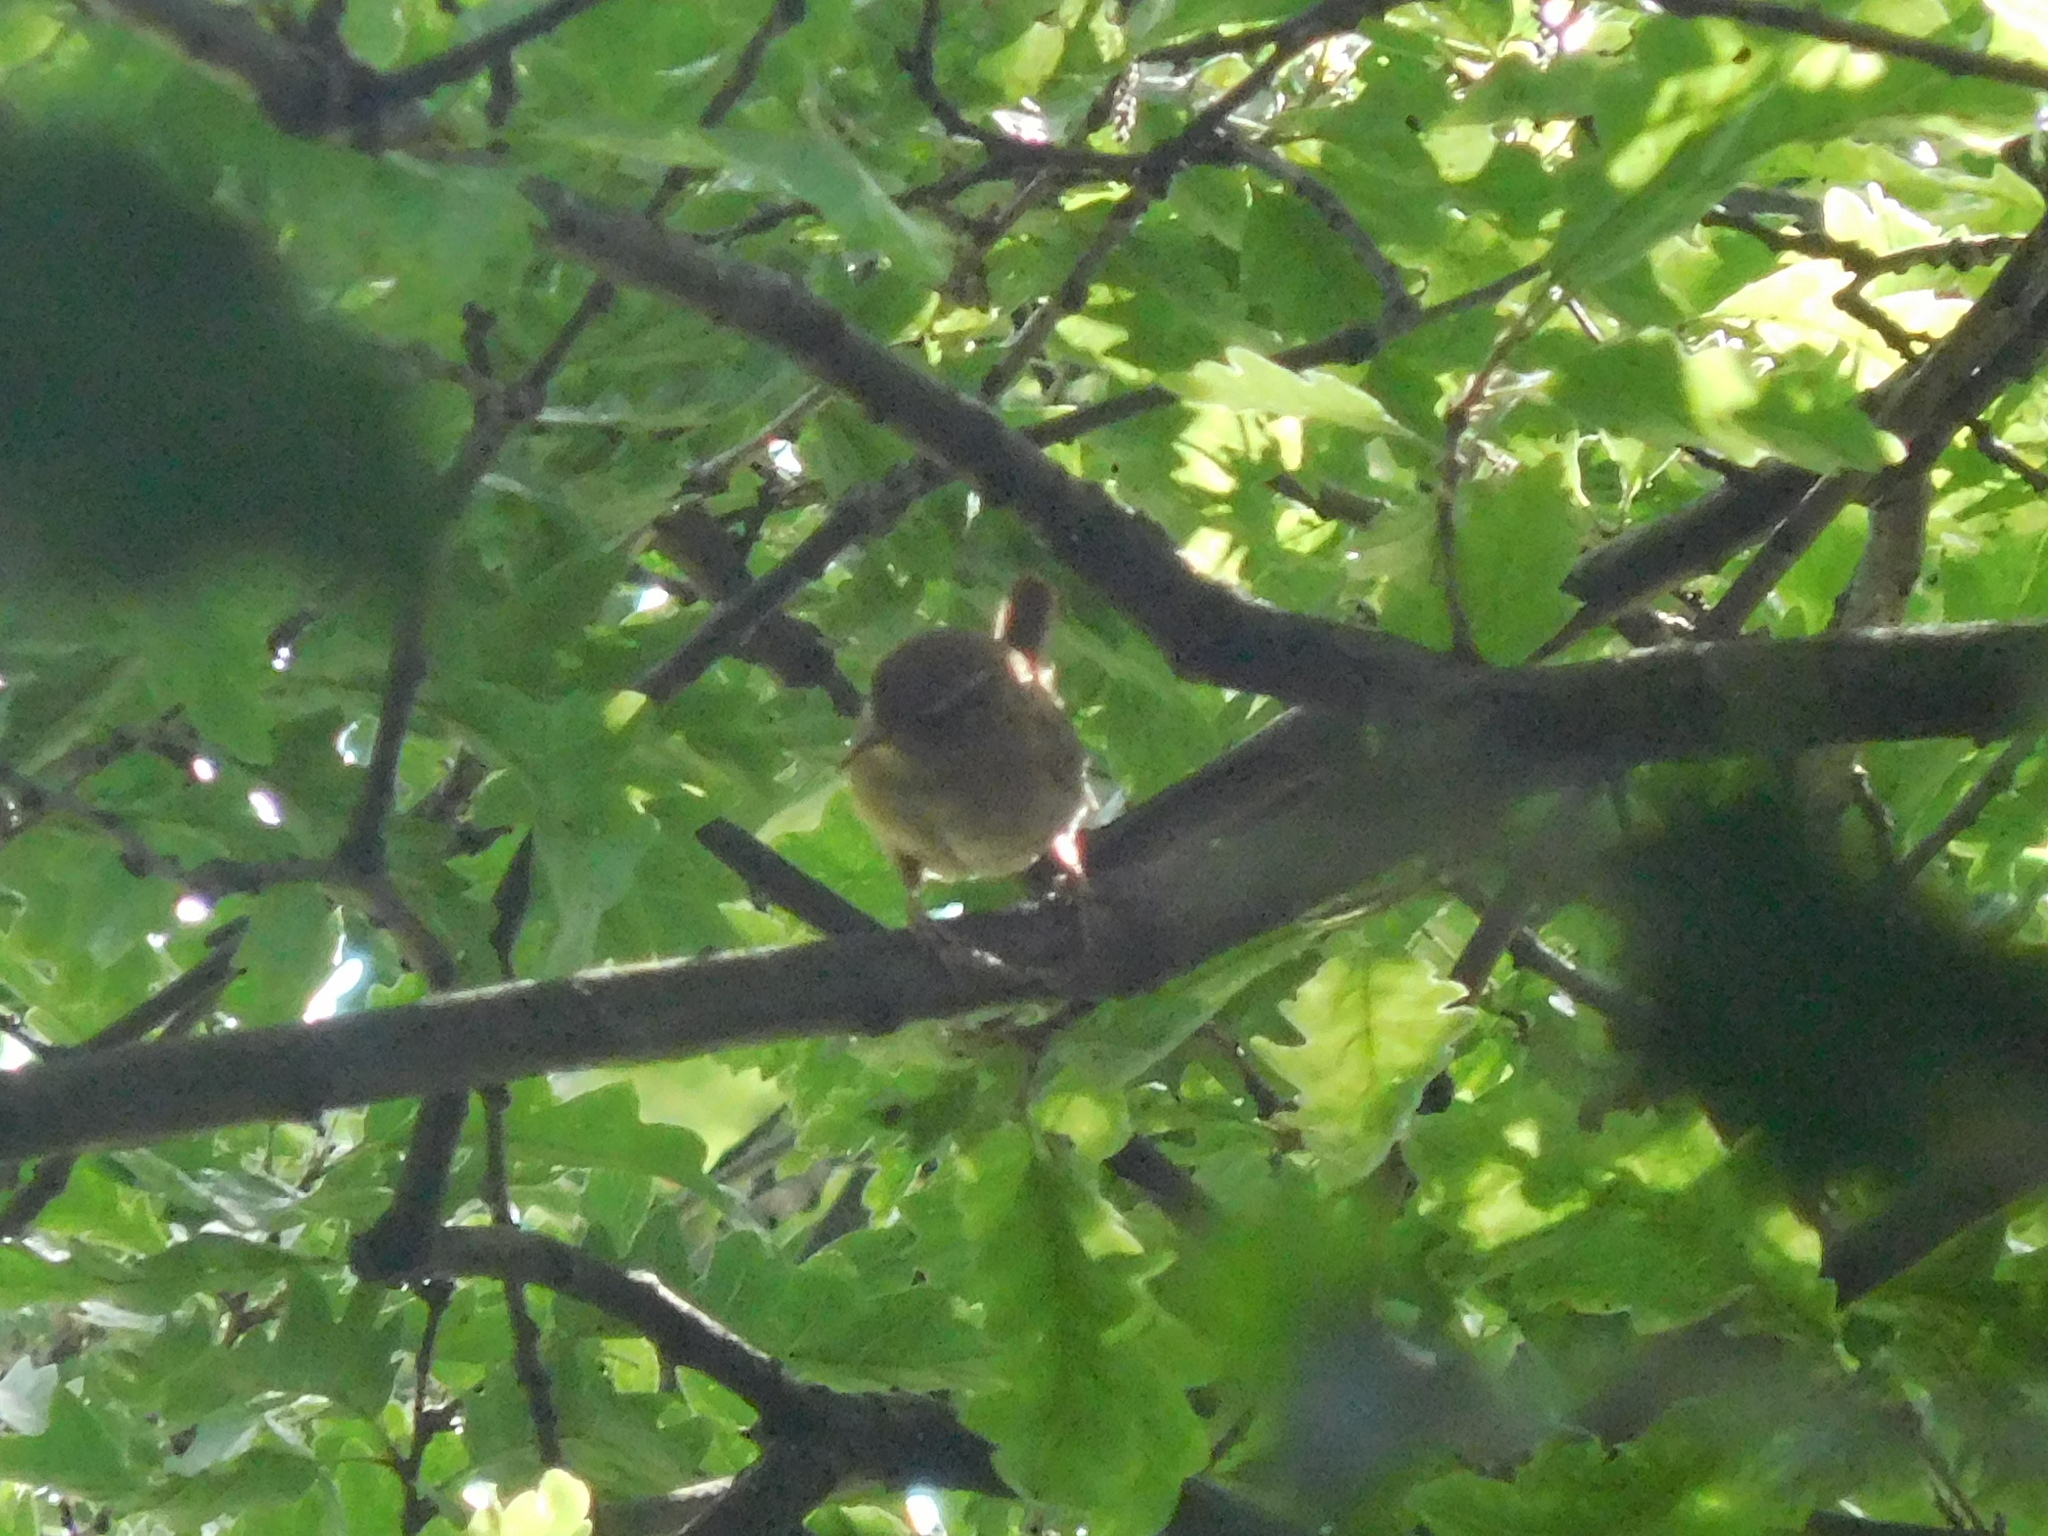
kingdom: Animalia
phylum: Chordata
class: Aves
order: Passeriformes
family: Troglodytidae
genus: Troglodytes
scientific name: Troglodytes troglodytes
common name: Eurasian wren
